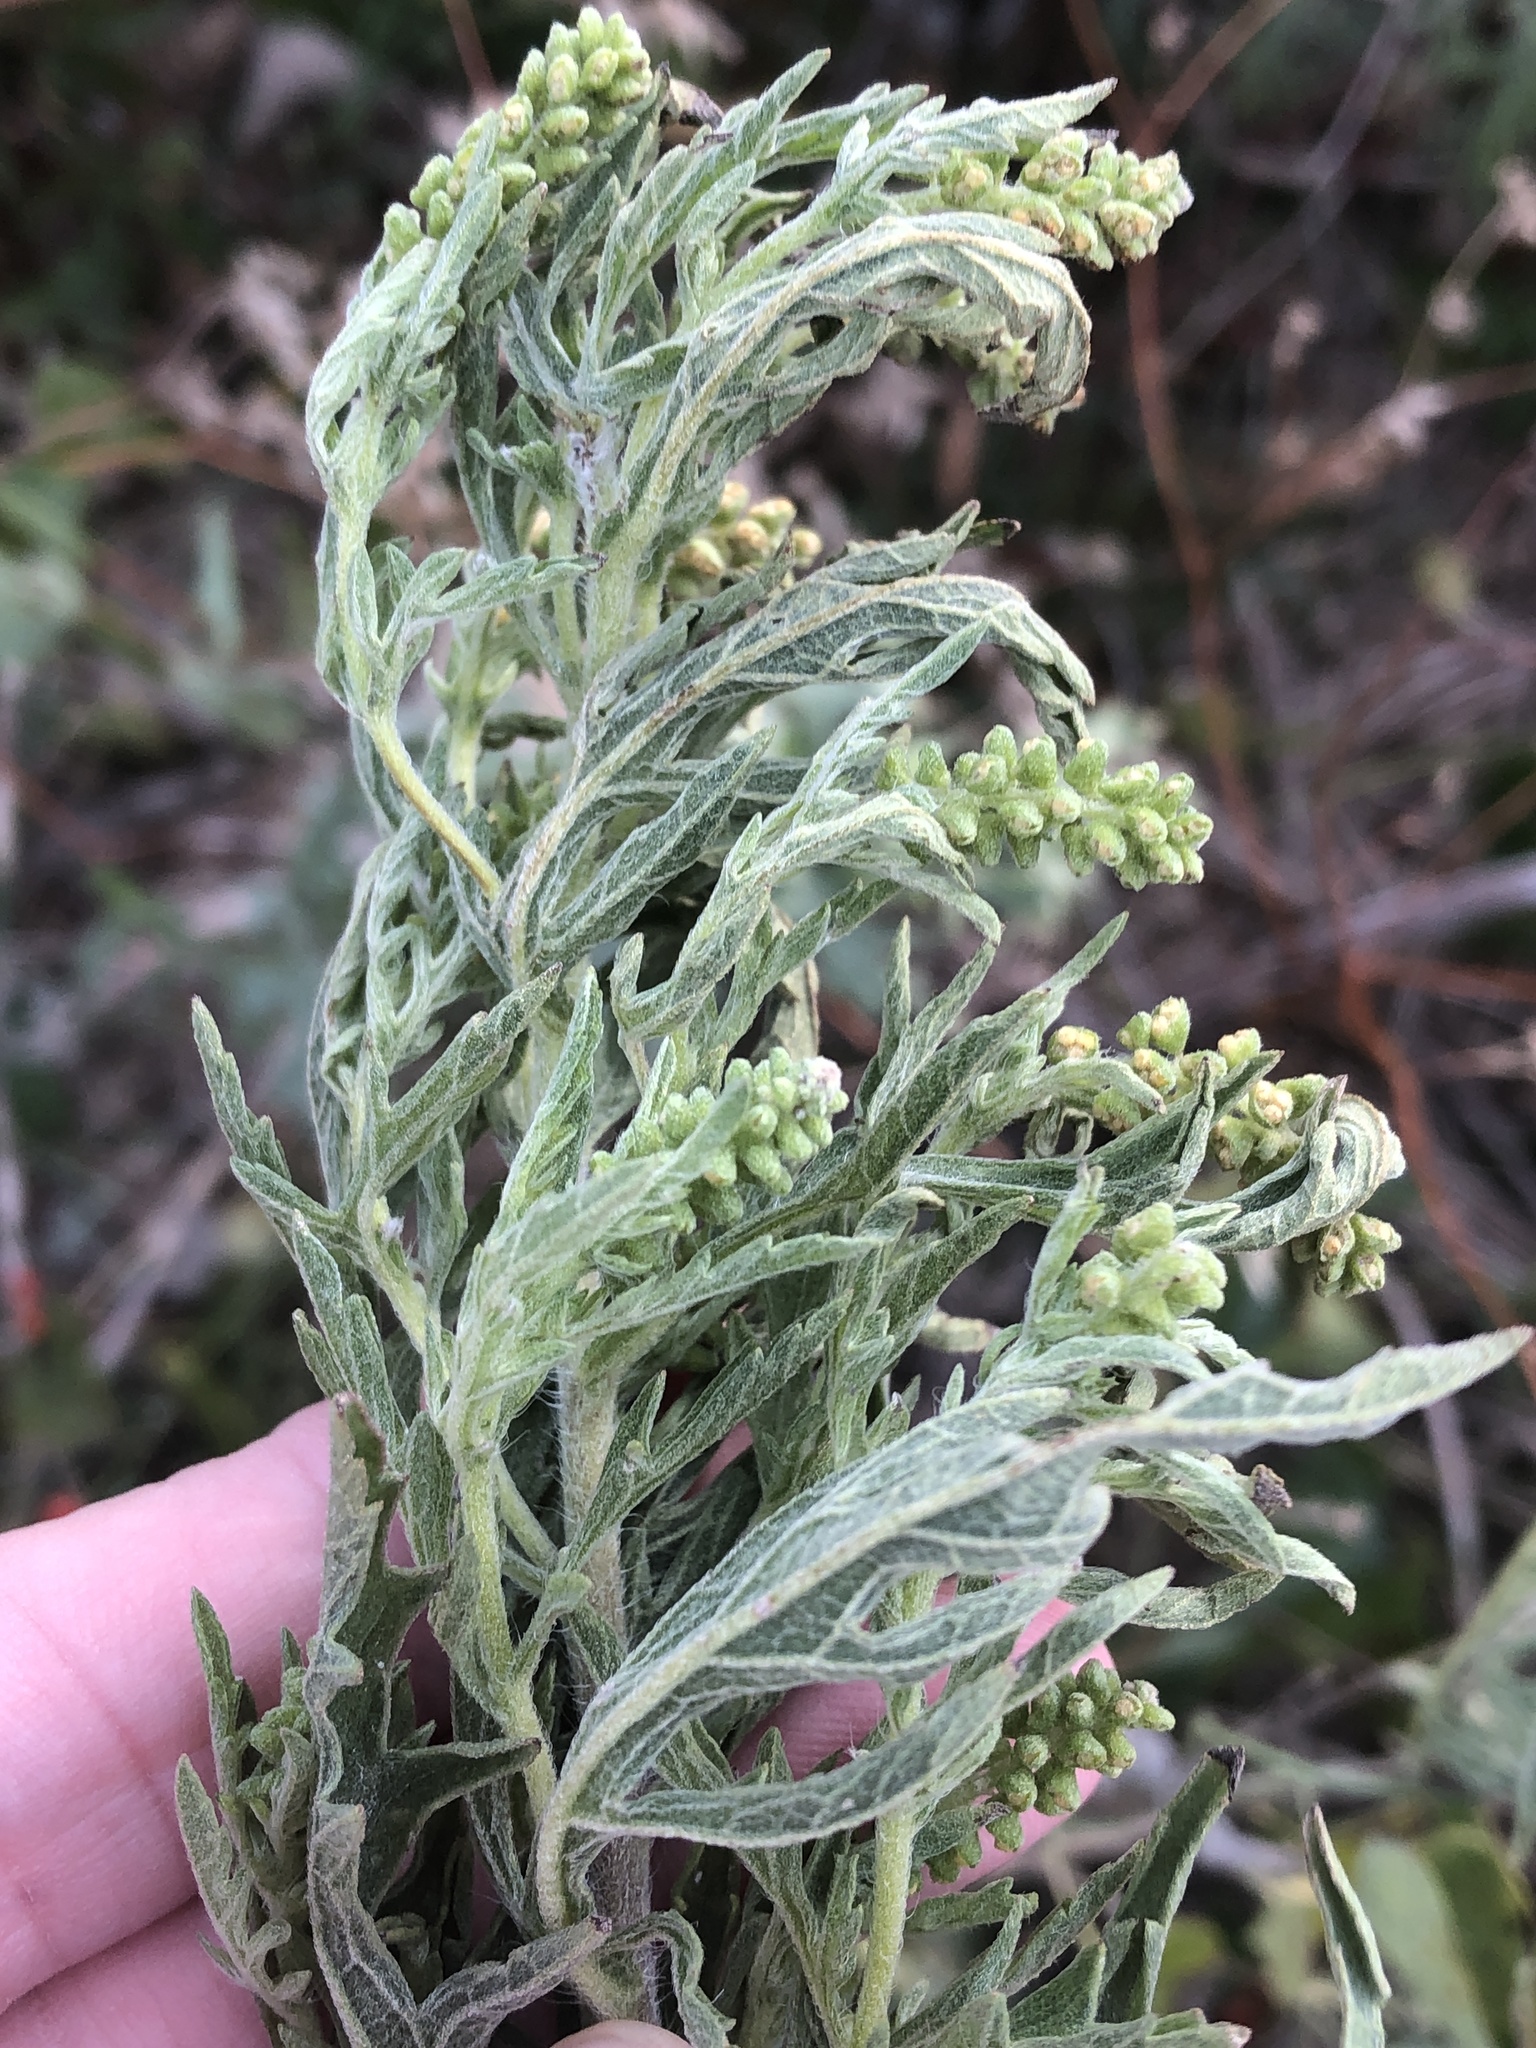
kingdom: Plantae
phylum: Tracheophyta
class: Magnoliopsida
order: Asterales
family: Asteraceae
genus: Ambrosia
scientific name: Ambrosia psilostachya
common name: Perennial ragweed
